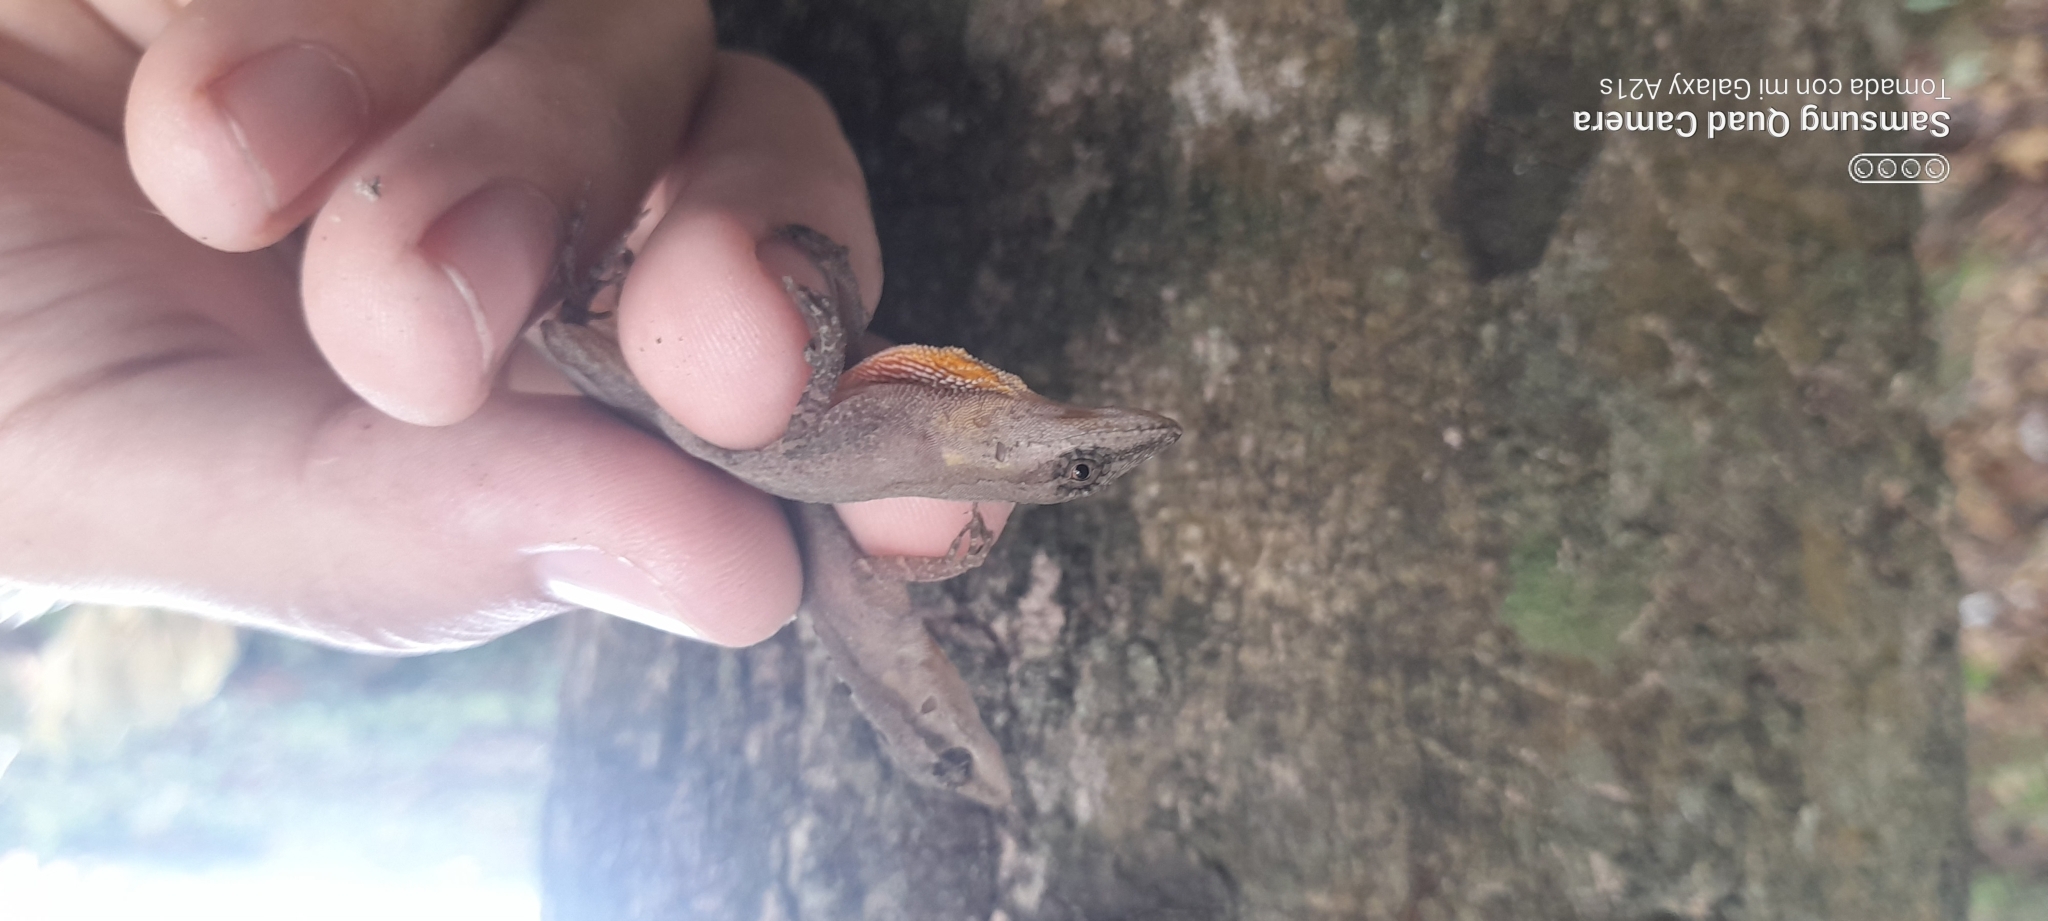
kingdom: Animalia
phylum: Chordata
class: Squamata
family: Dactyloidae
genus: Anolis
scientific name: Anolis gaigei
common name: Gaige’s anole
